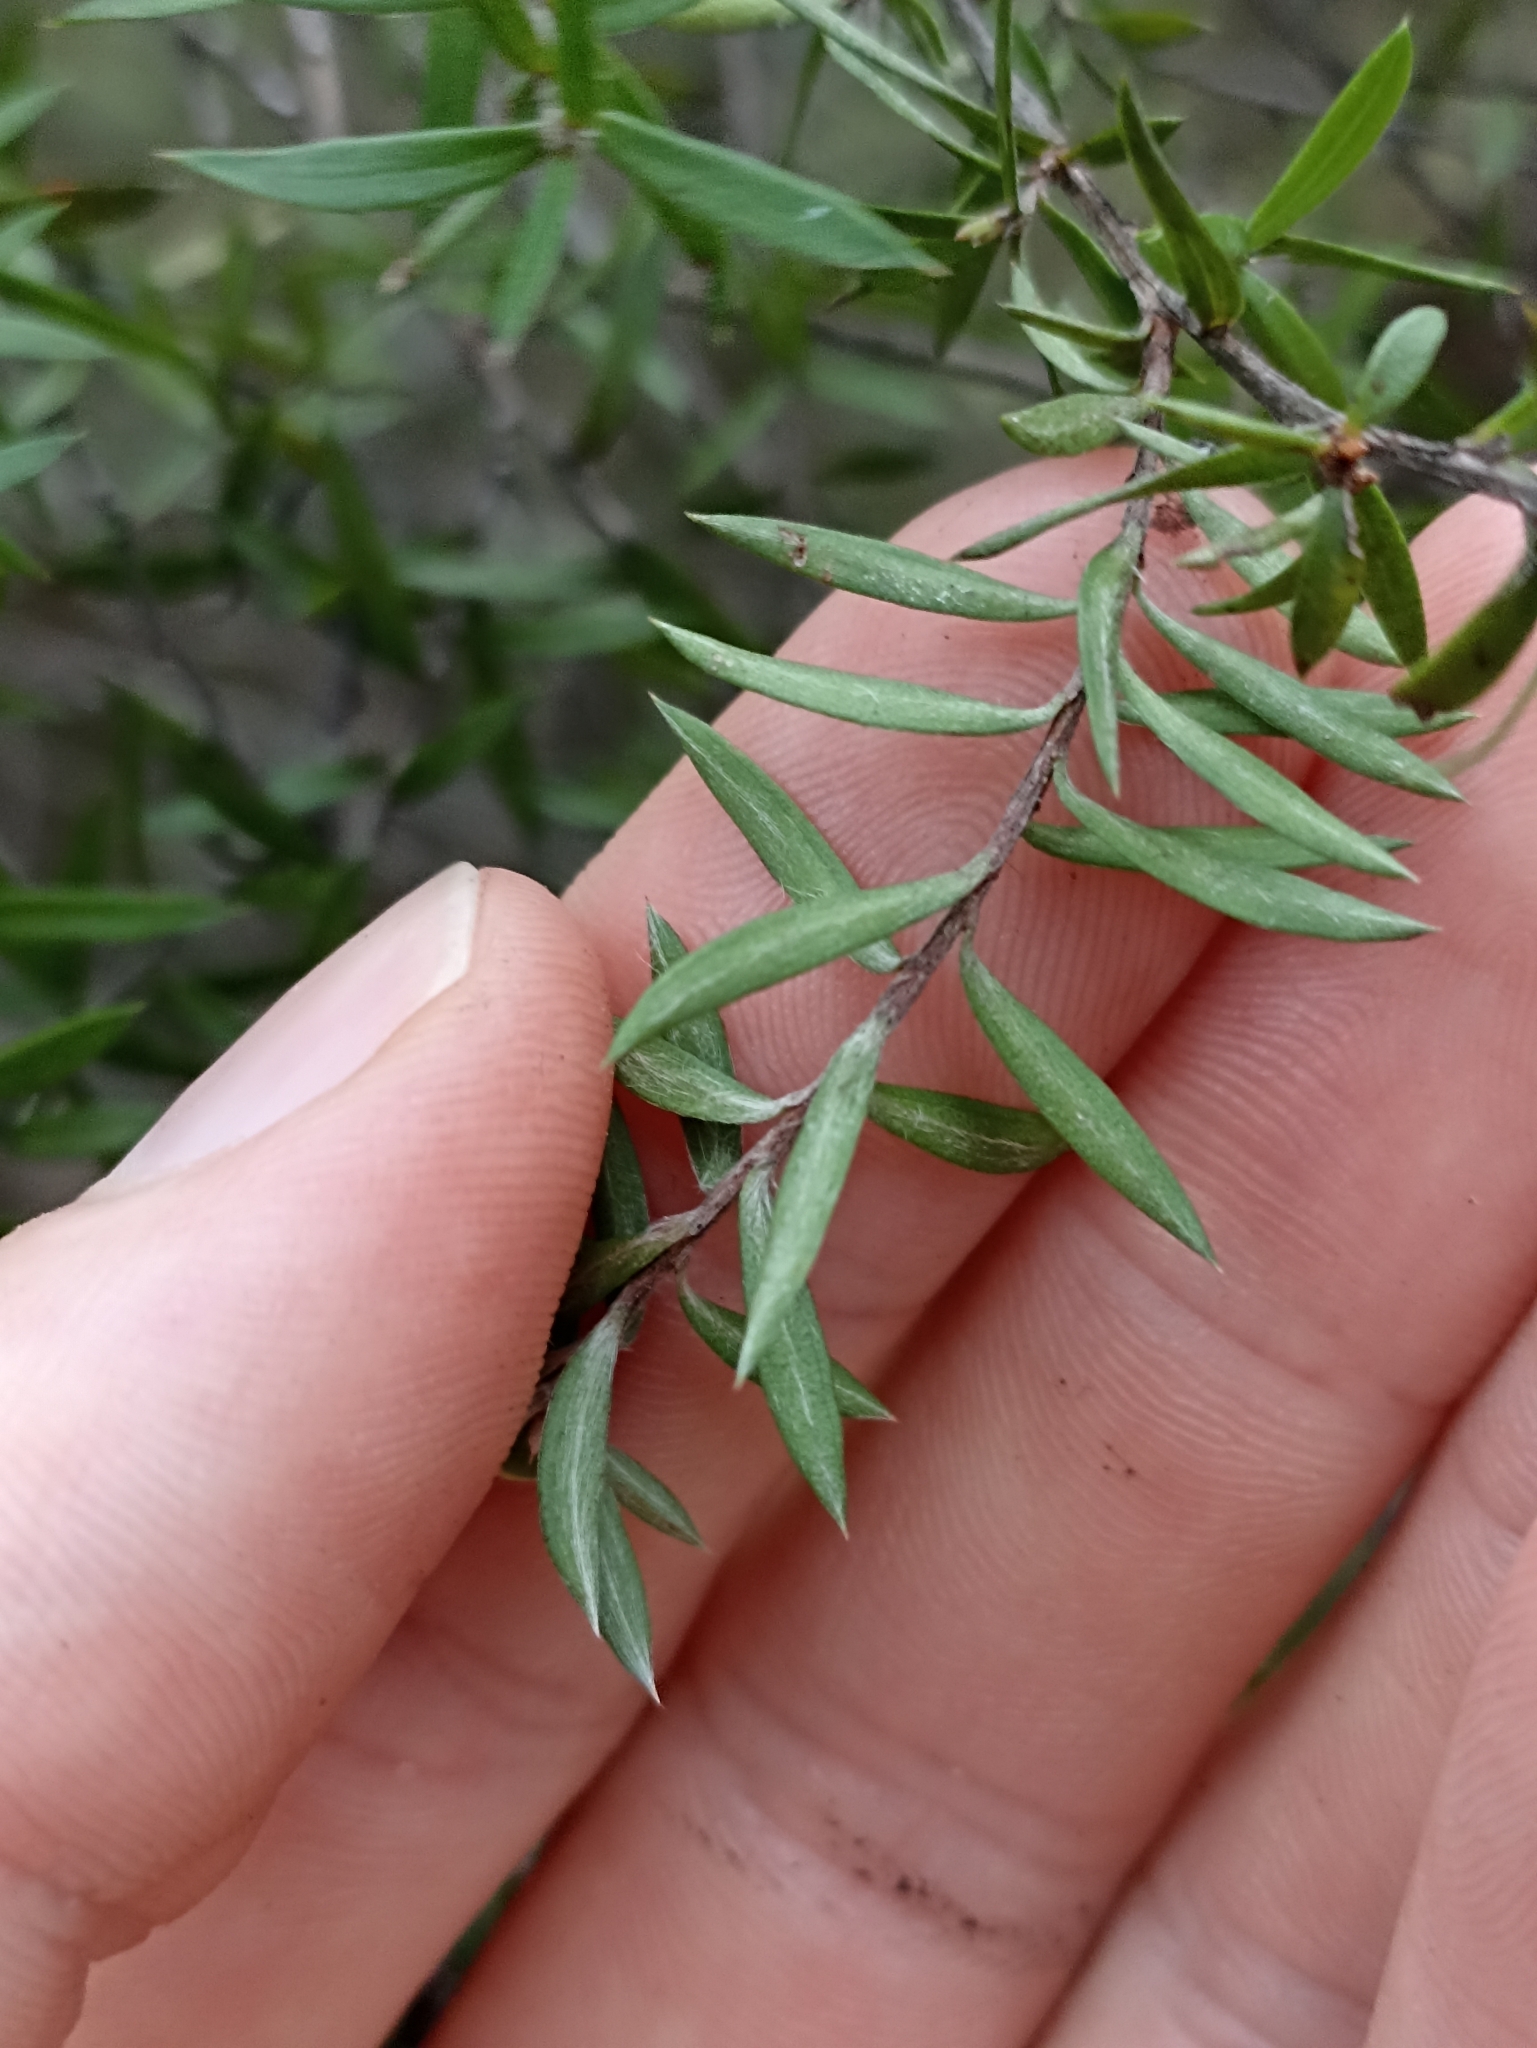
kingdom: Plantae
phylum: Tracheophyta
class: Magnoliopsida
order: Myrtales
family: Myrtaceae
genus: Leptospermum
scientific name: Leptospermum scoparium
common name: Broom tea-tree
